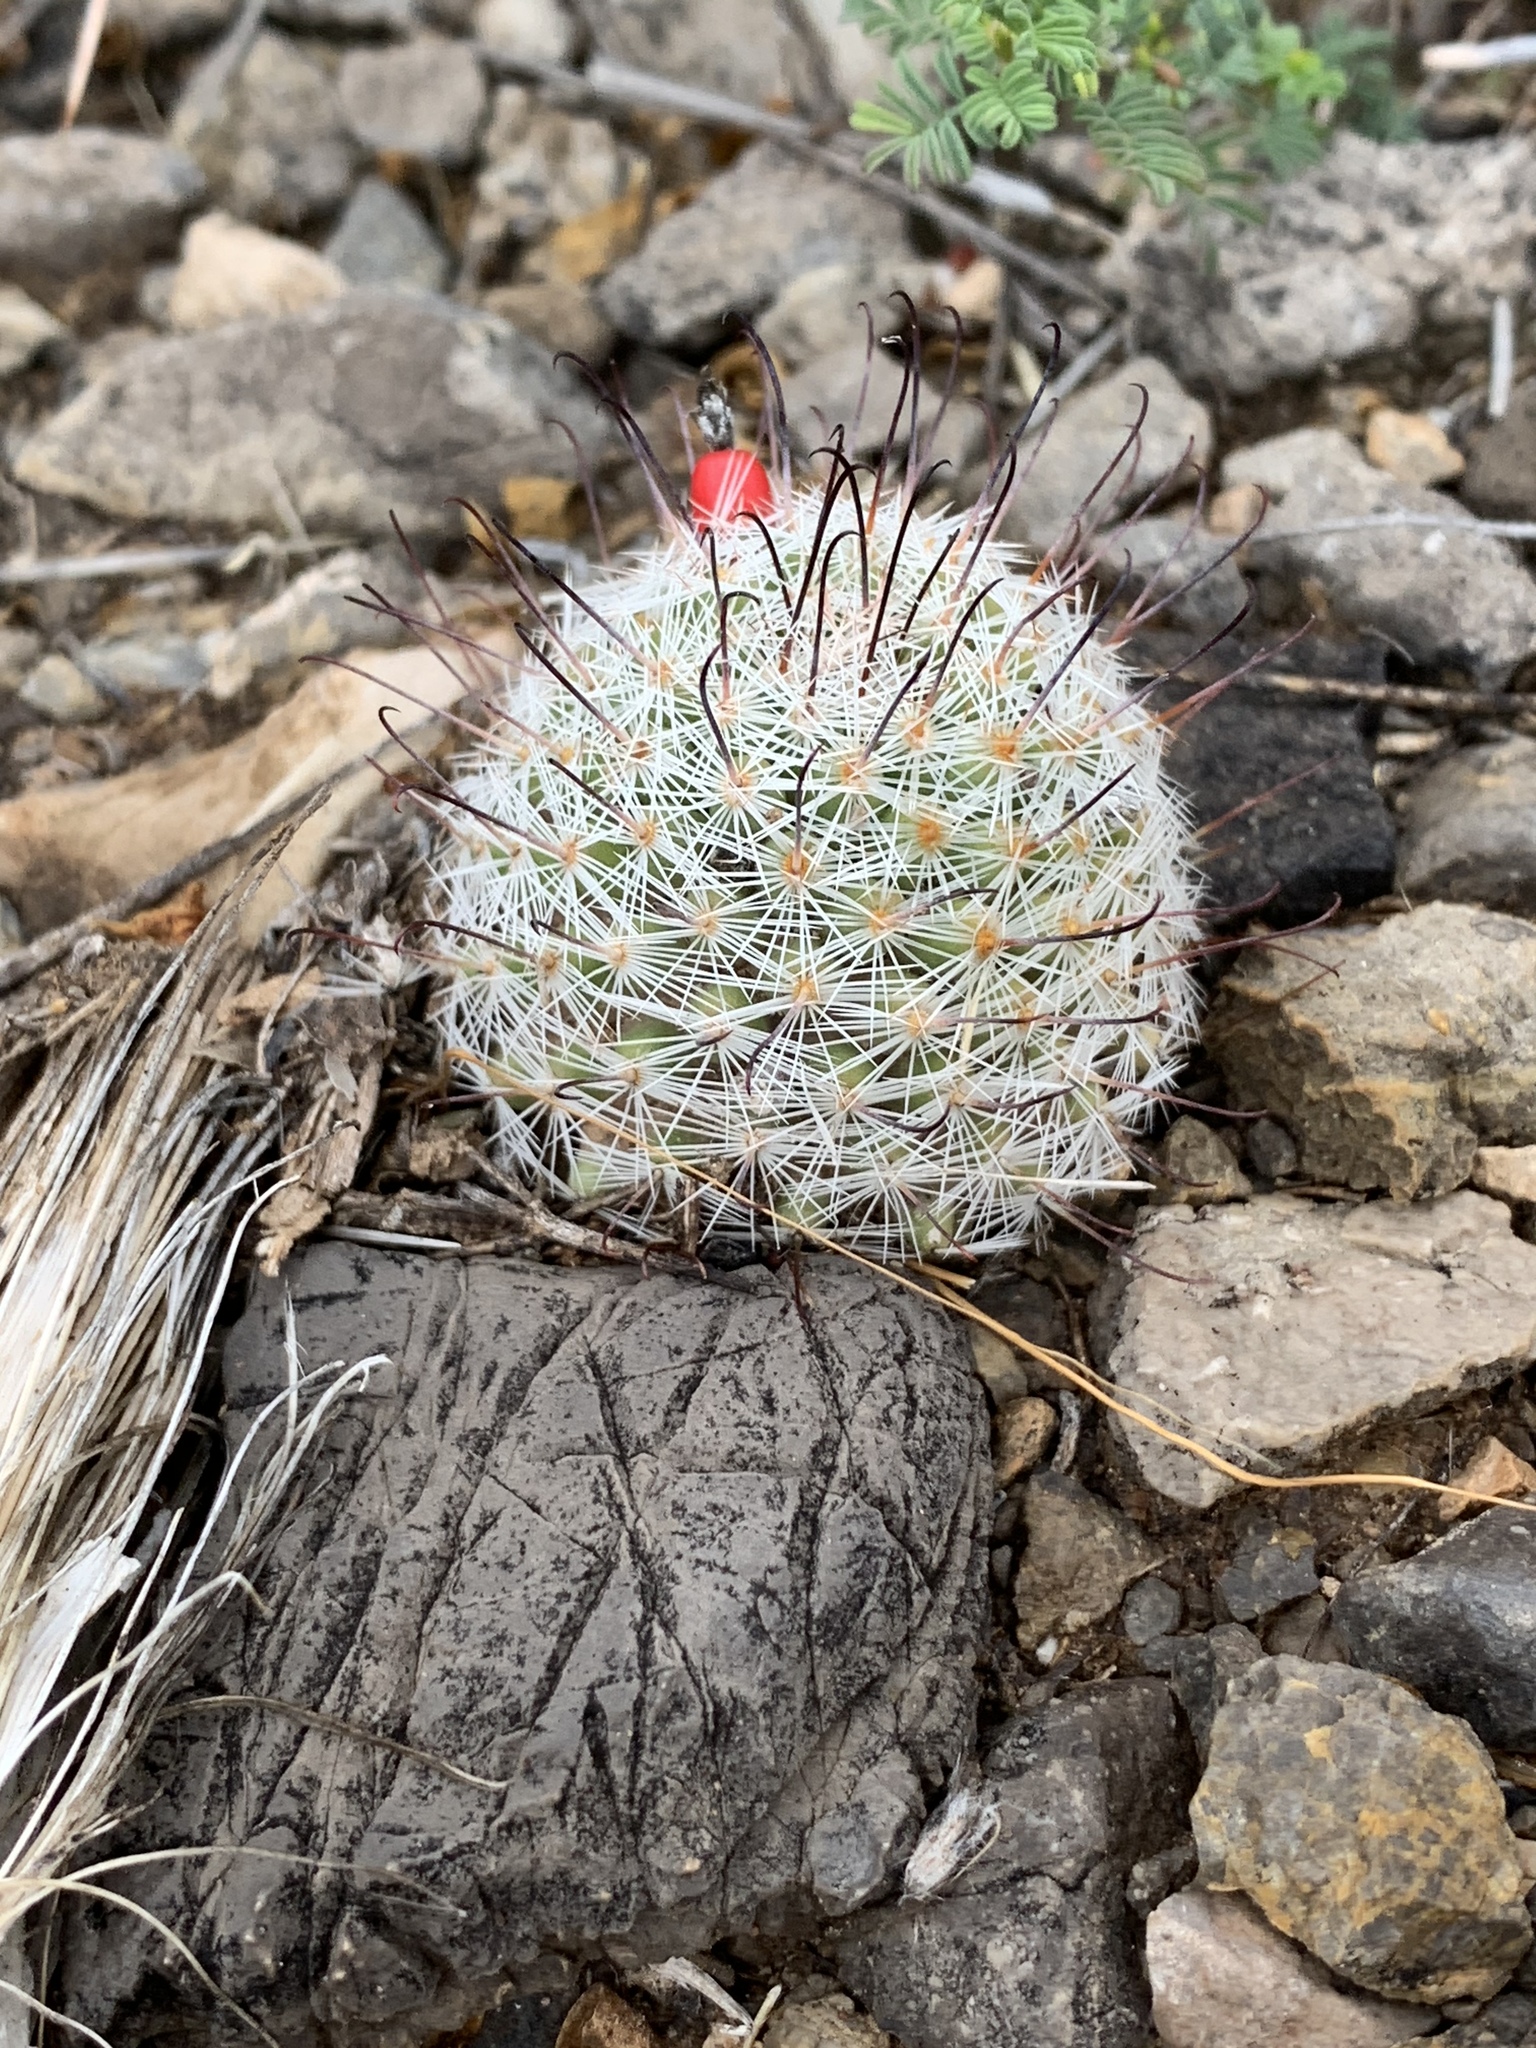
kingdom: Plantae
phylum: Tracheophyta
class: Magnoliopsida
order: Caryophyllales
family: Cactaceae
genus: Cochemiea
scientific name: Cochemiea grahamii
